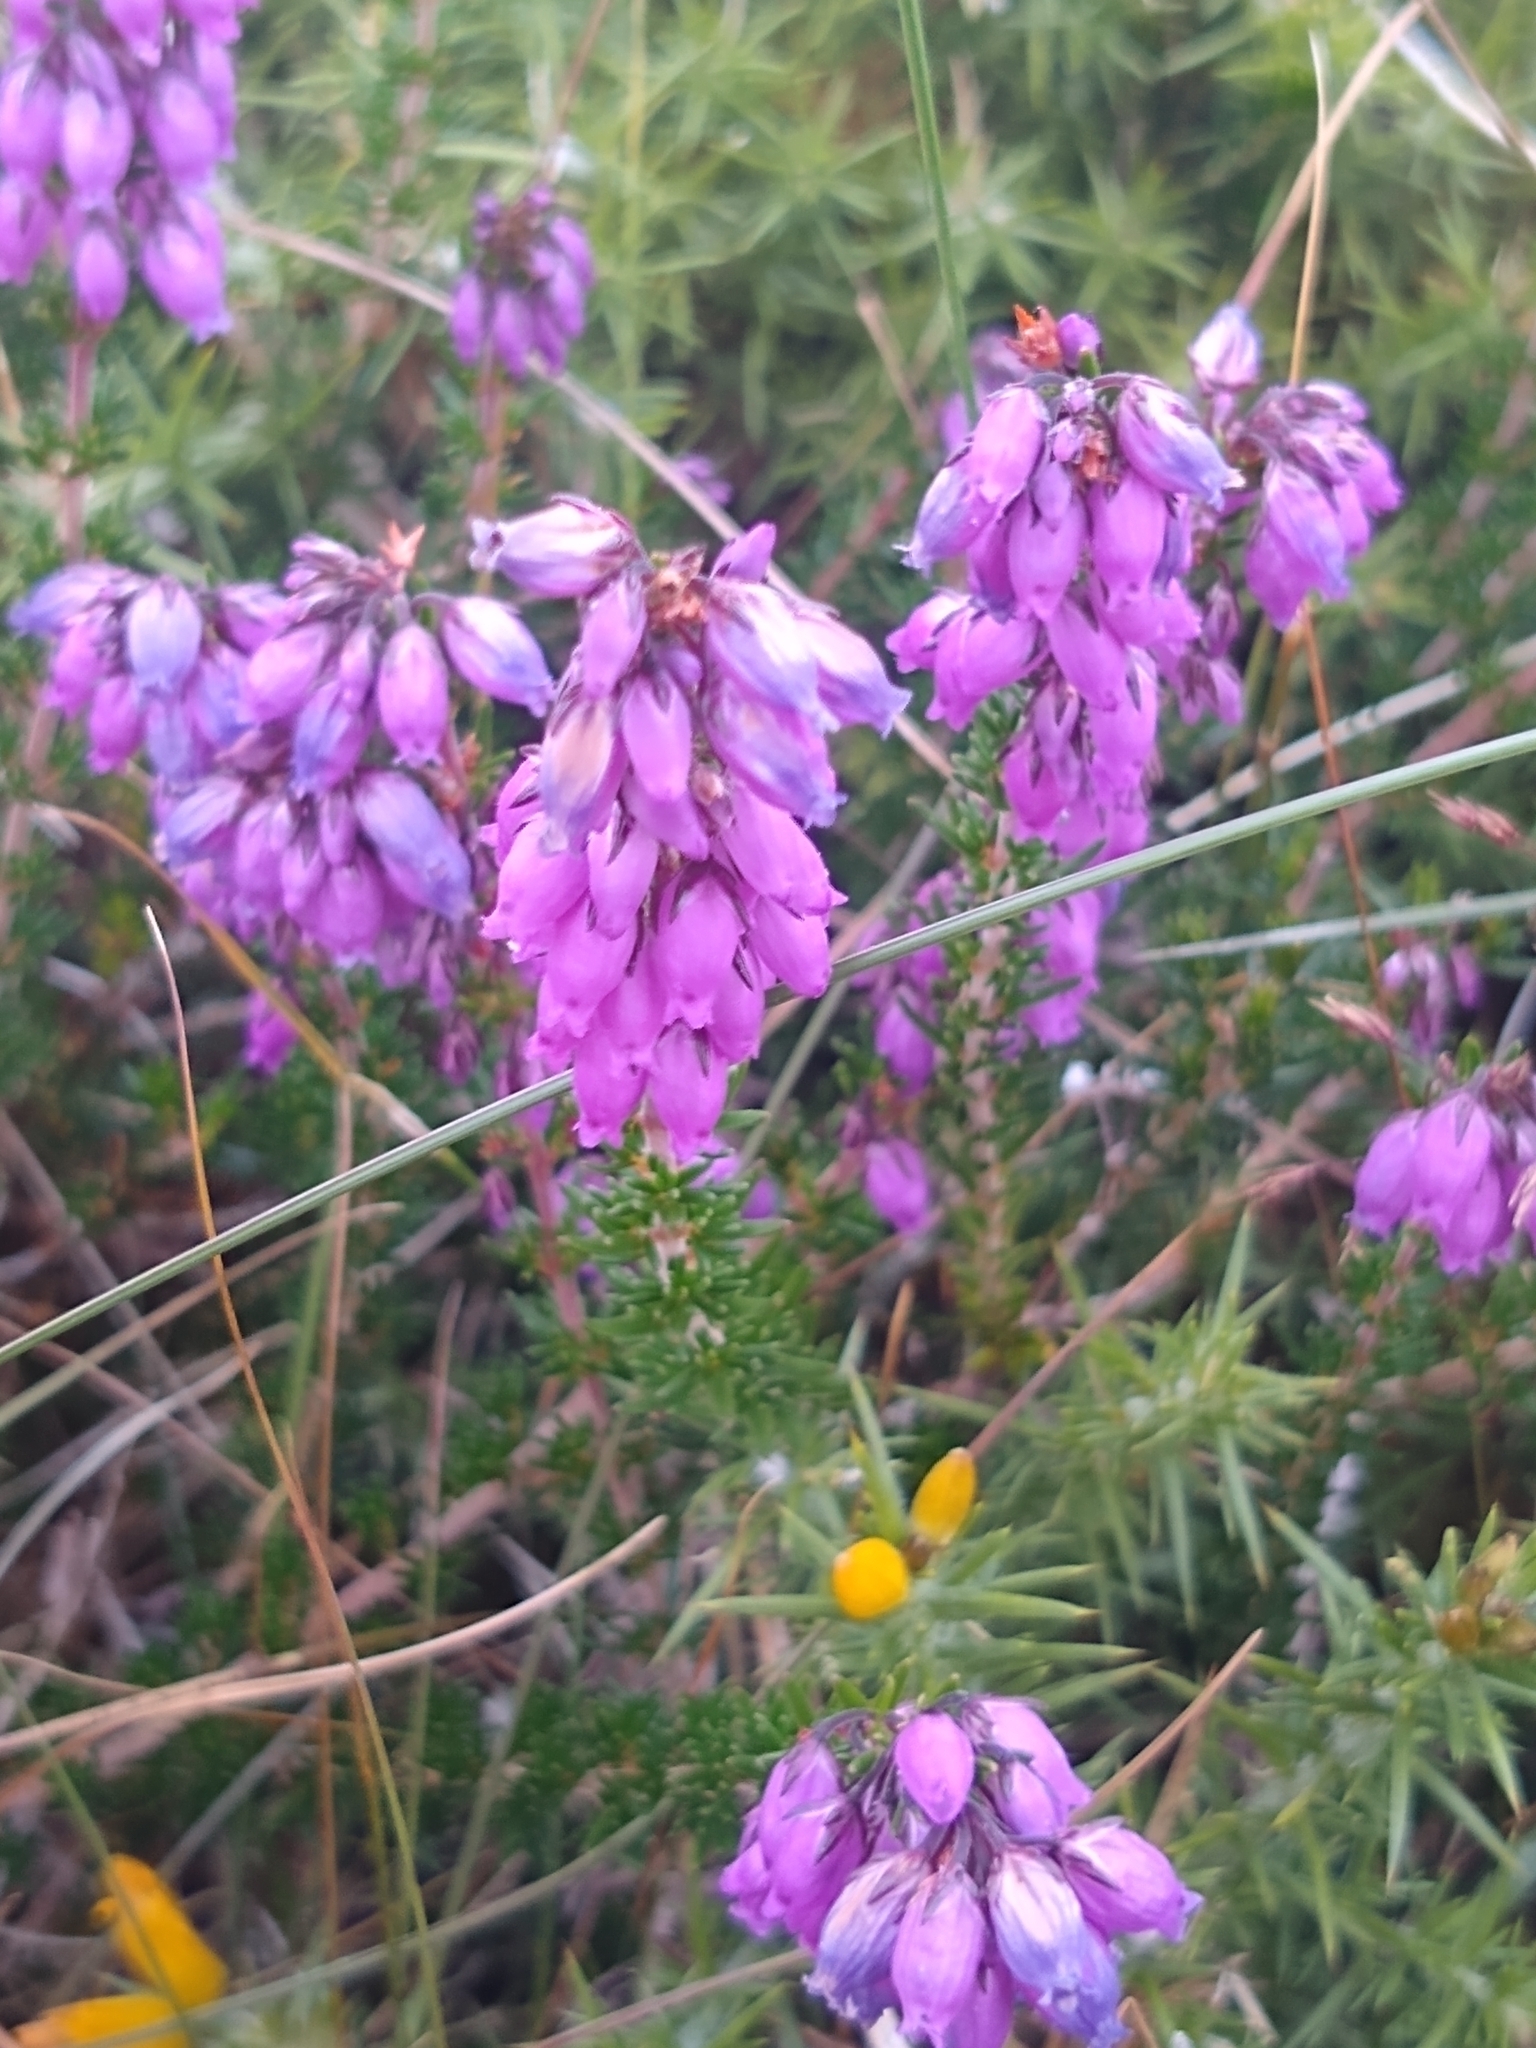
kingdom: Plantae
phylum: Tracheophyta
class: Magnoliopsida
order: Ericales
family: Ericaceae
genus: Erica
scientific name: Erica cinerea
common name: Bell heather
